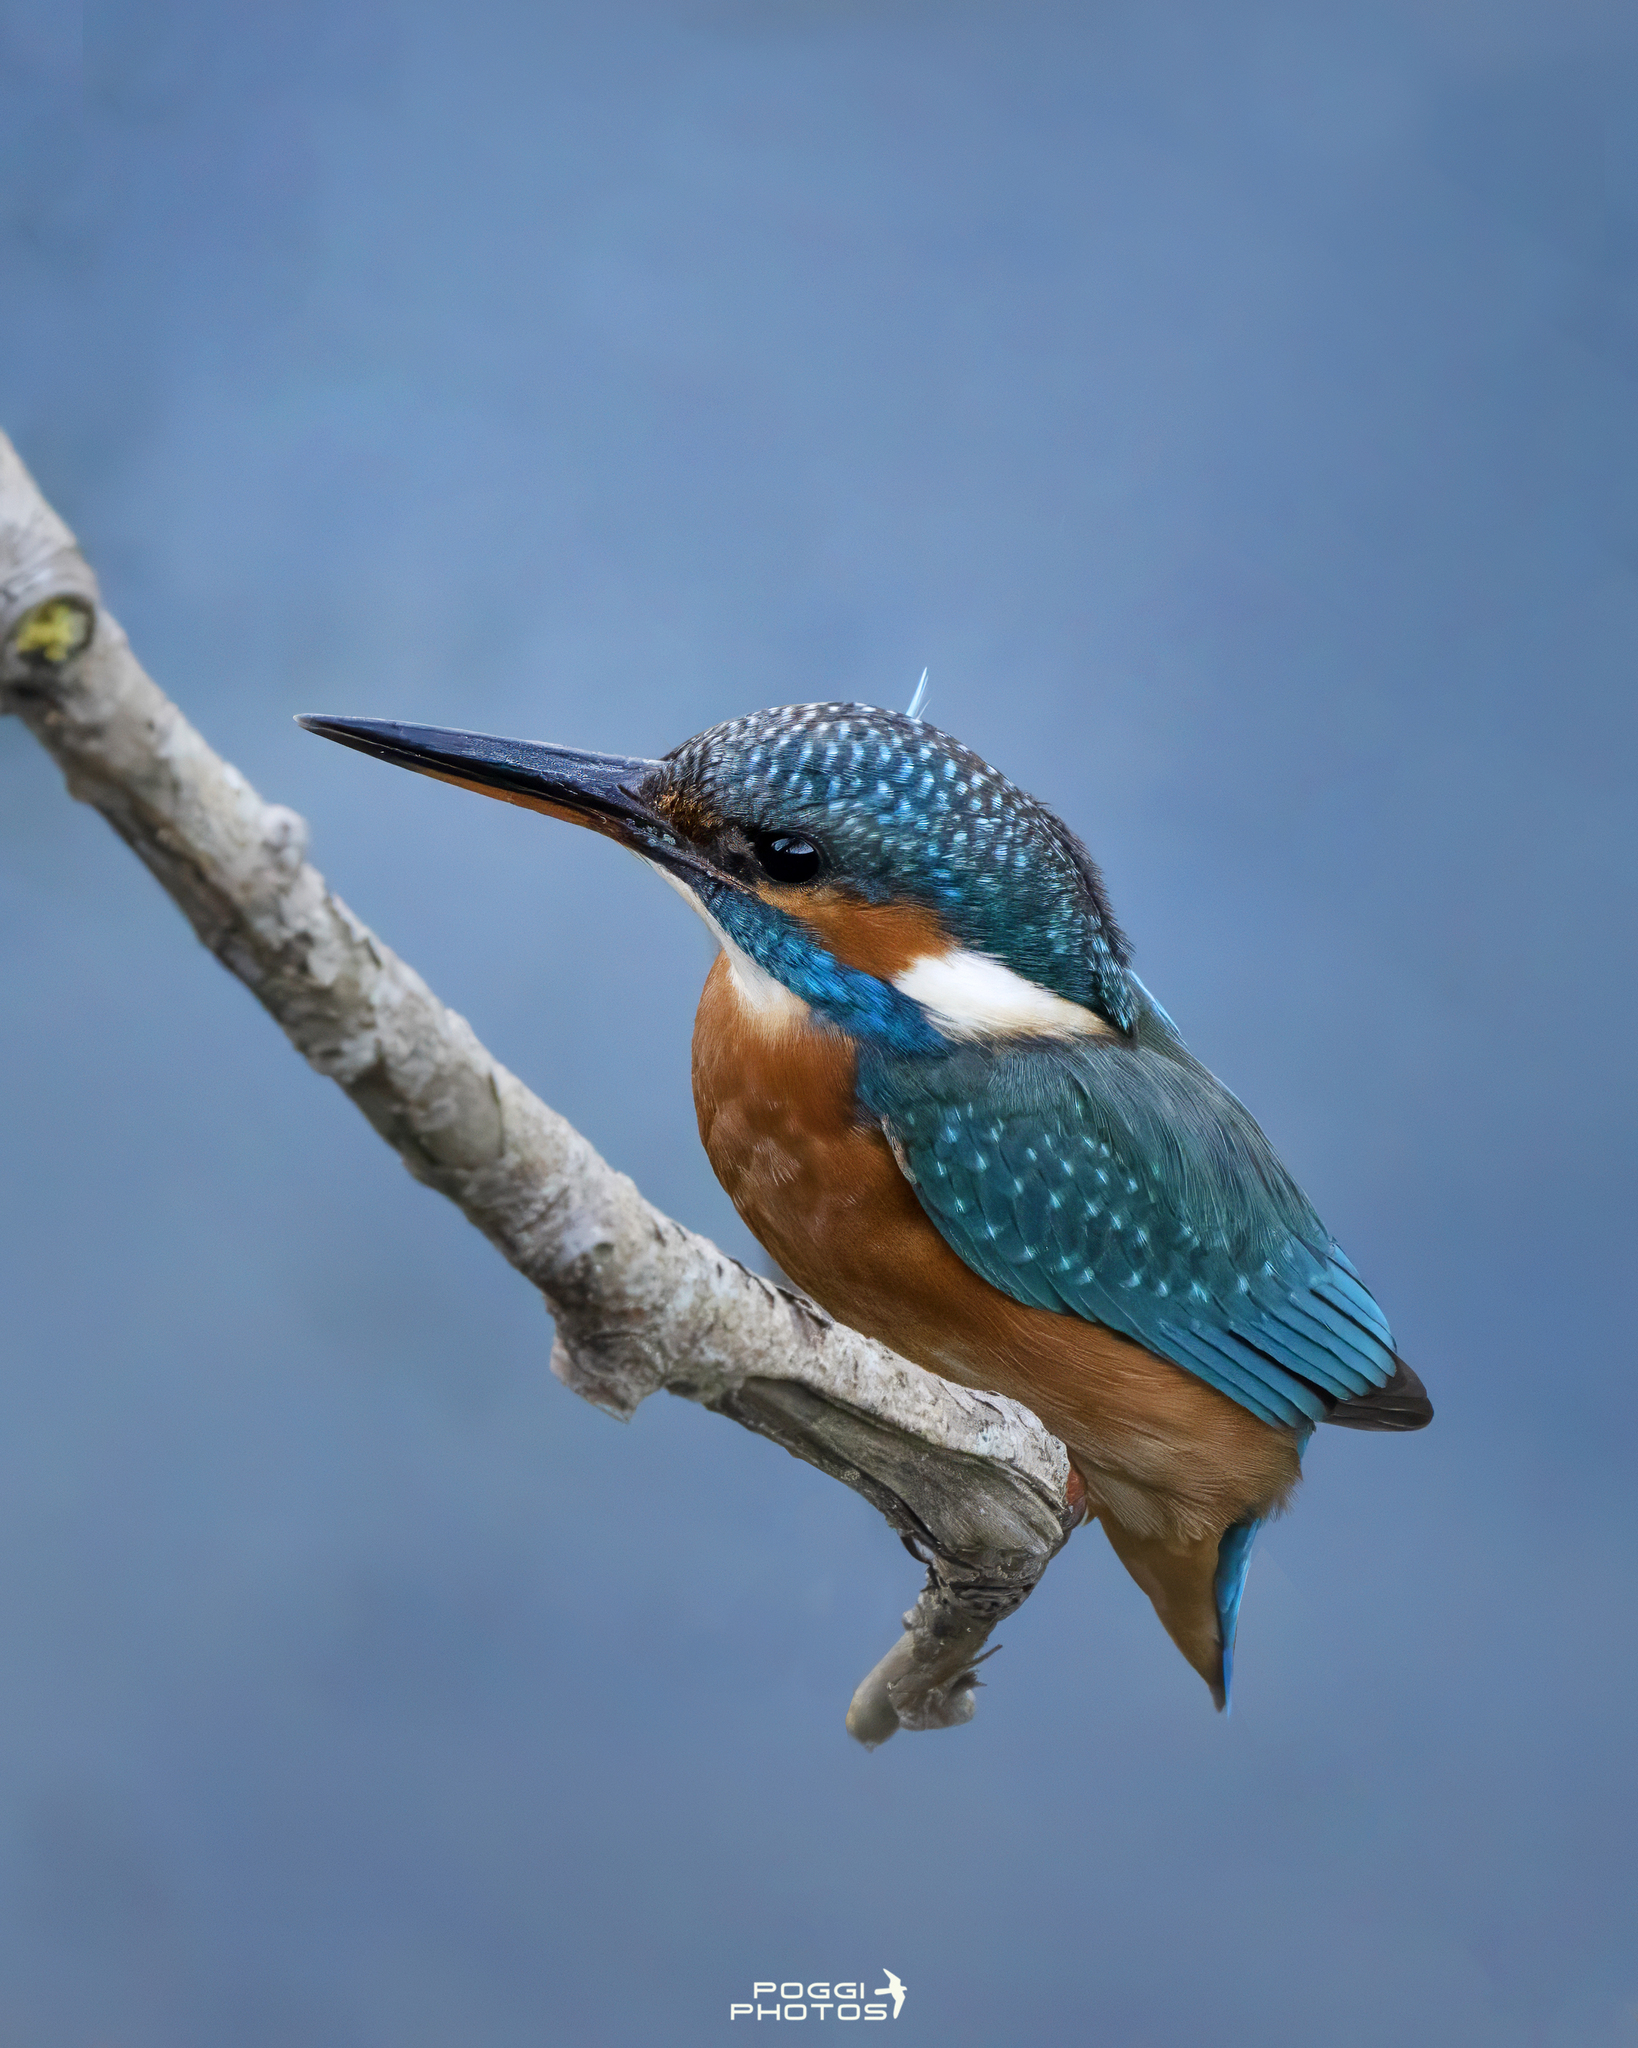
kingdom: Animalia
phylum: Chordata
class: Aves
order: Coraciiformes
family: Alcedinidae
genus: Alcedo
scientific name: Alcedo atthis
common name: Common kingfisher
